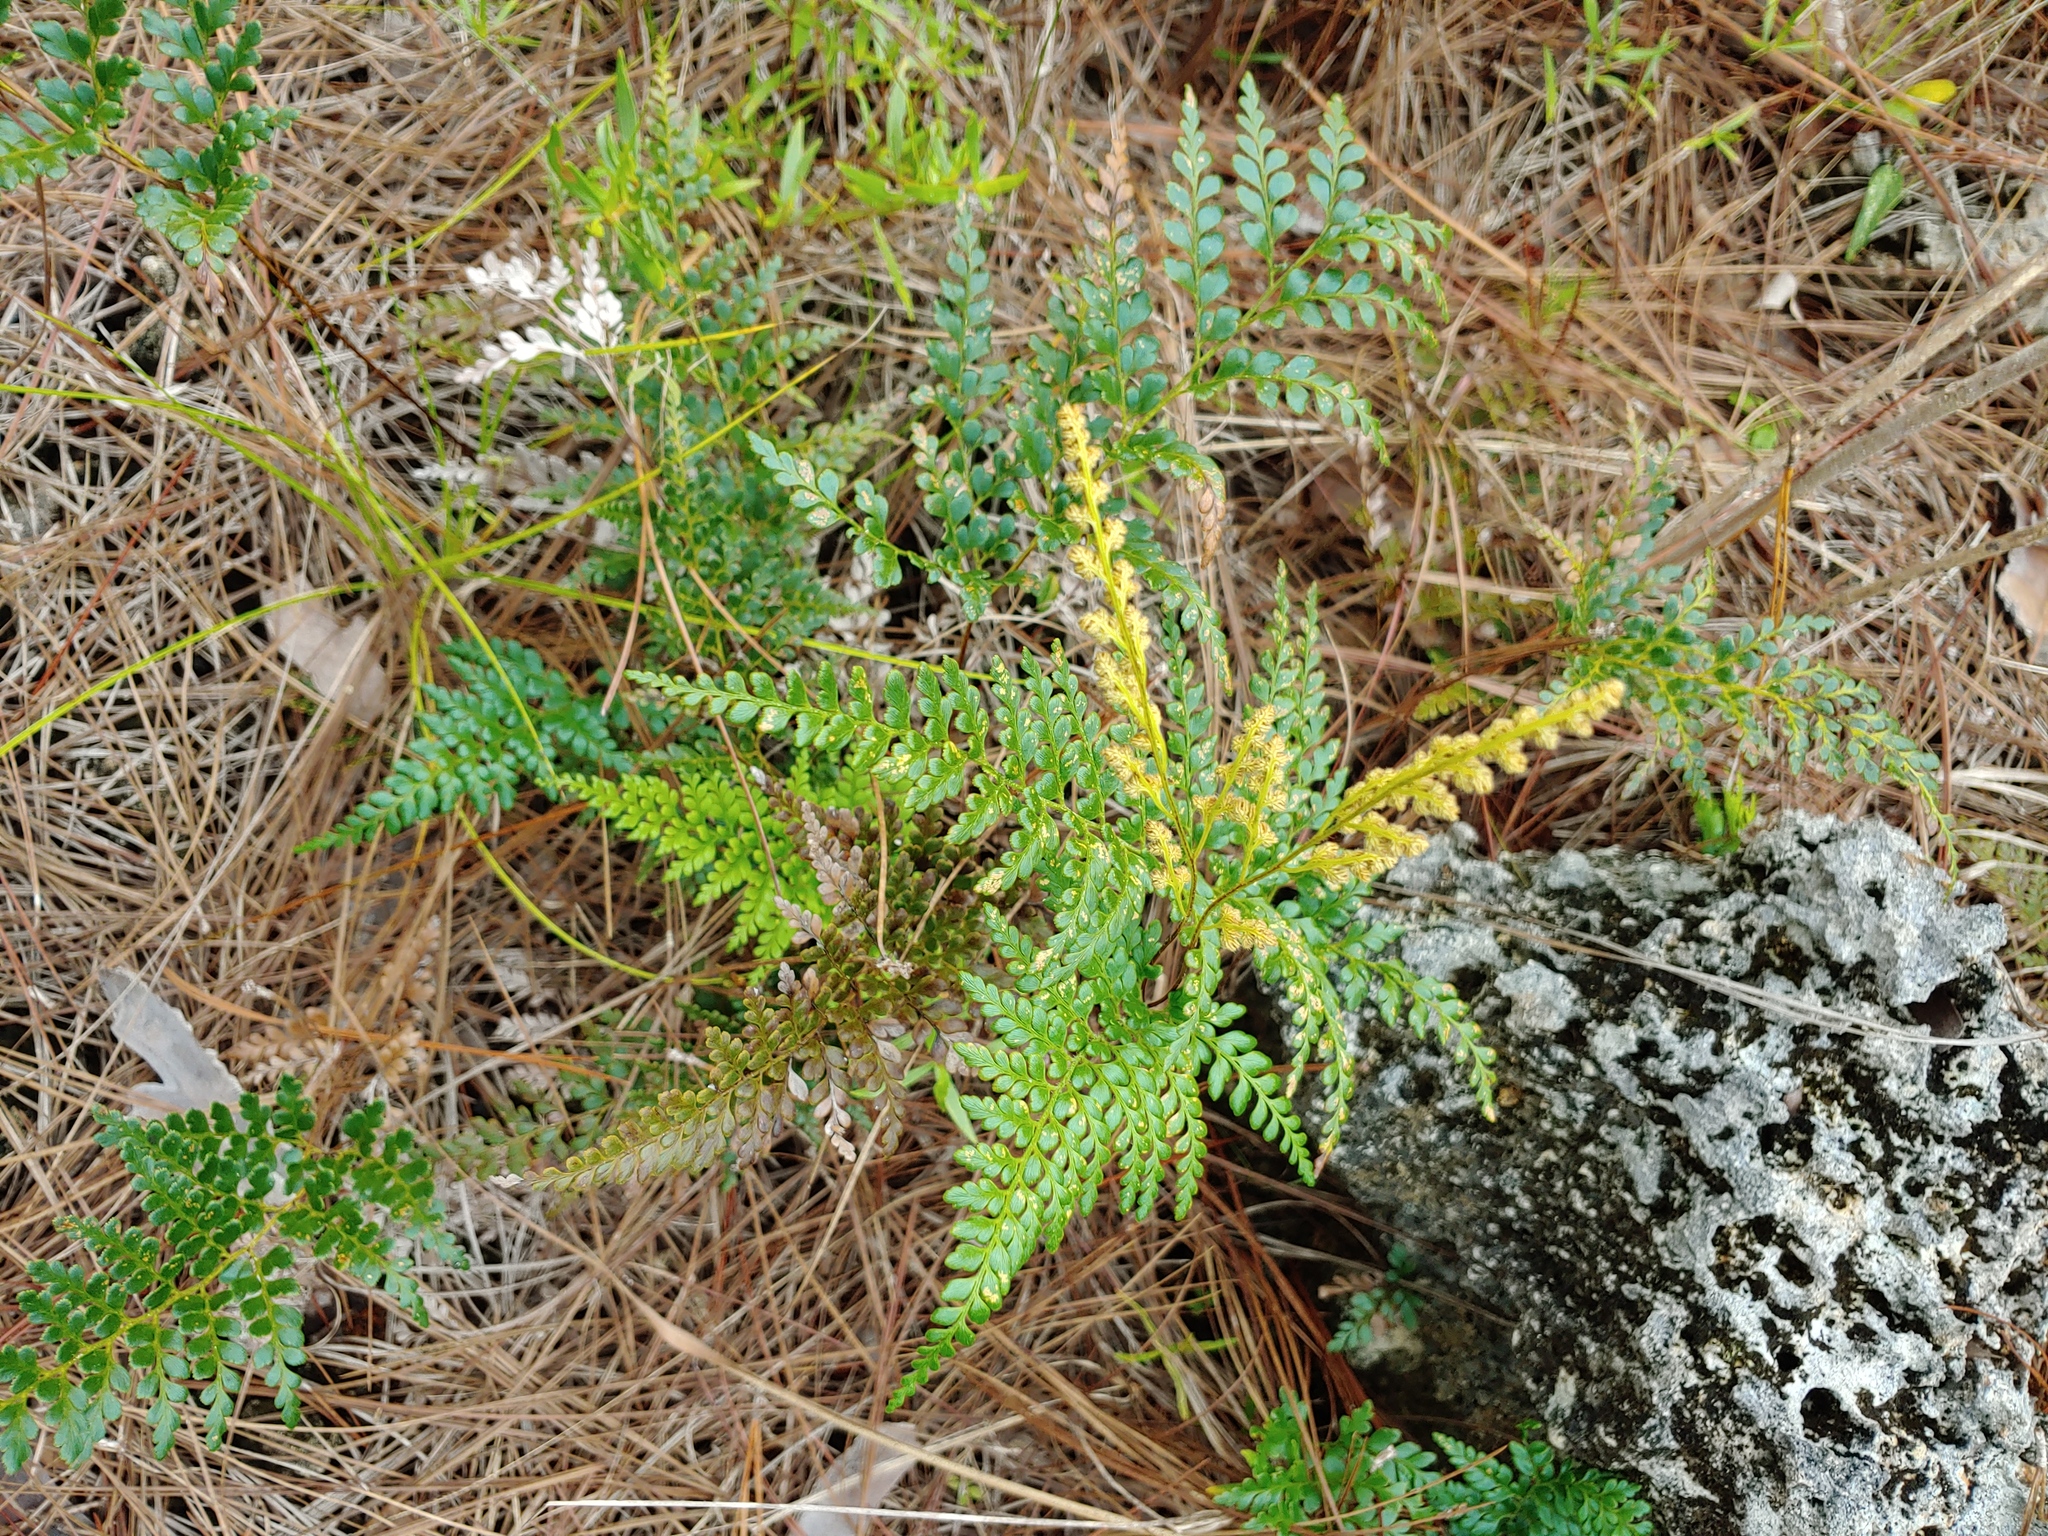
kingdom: Plantae
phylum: Tracheophyta
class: Polypodiopsida
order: Schizaeales
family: Anemiaceae
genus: Anemia
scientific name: Anemia adiantifolia
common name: Pine fern
